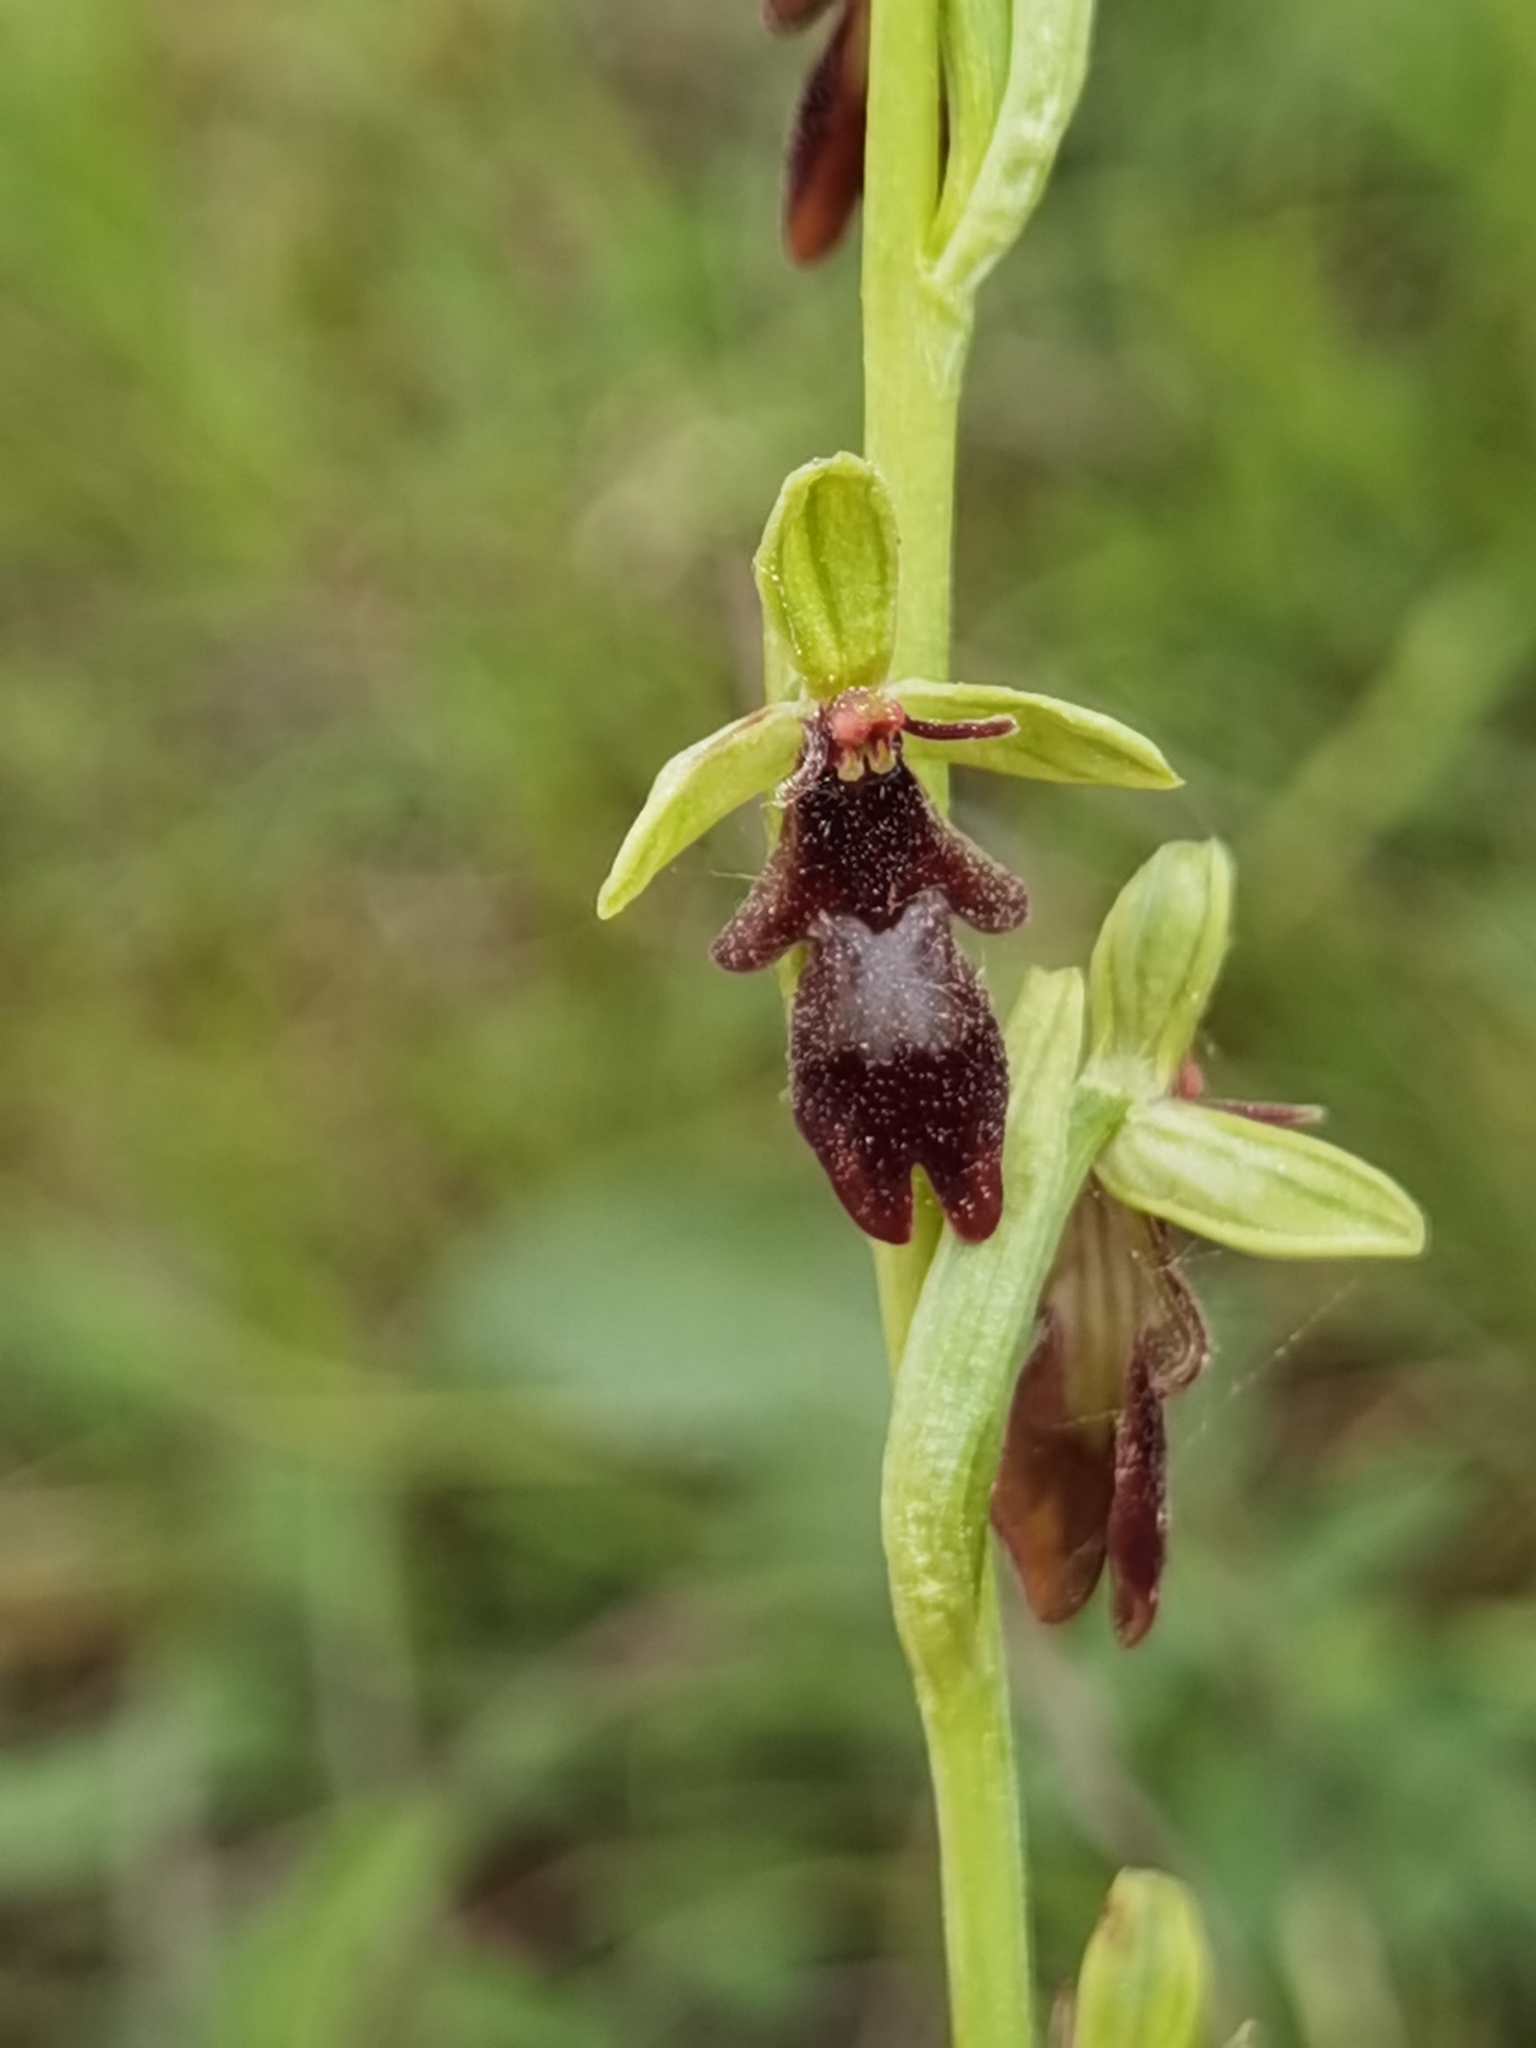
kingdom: Plantae
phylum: Tracheophyta
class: Liliopsida
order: Asparagales
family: Orchidaceae
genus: Ophrys
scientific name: Ophrys insectifera
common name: Fly orchid
